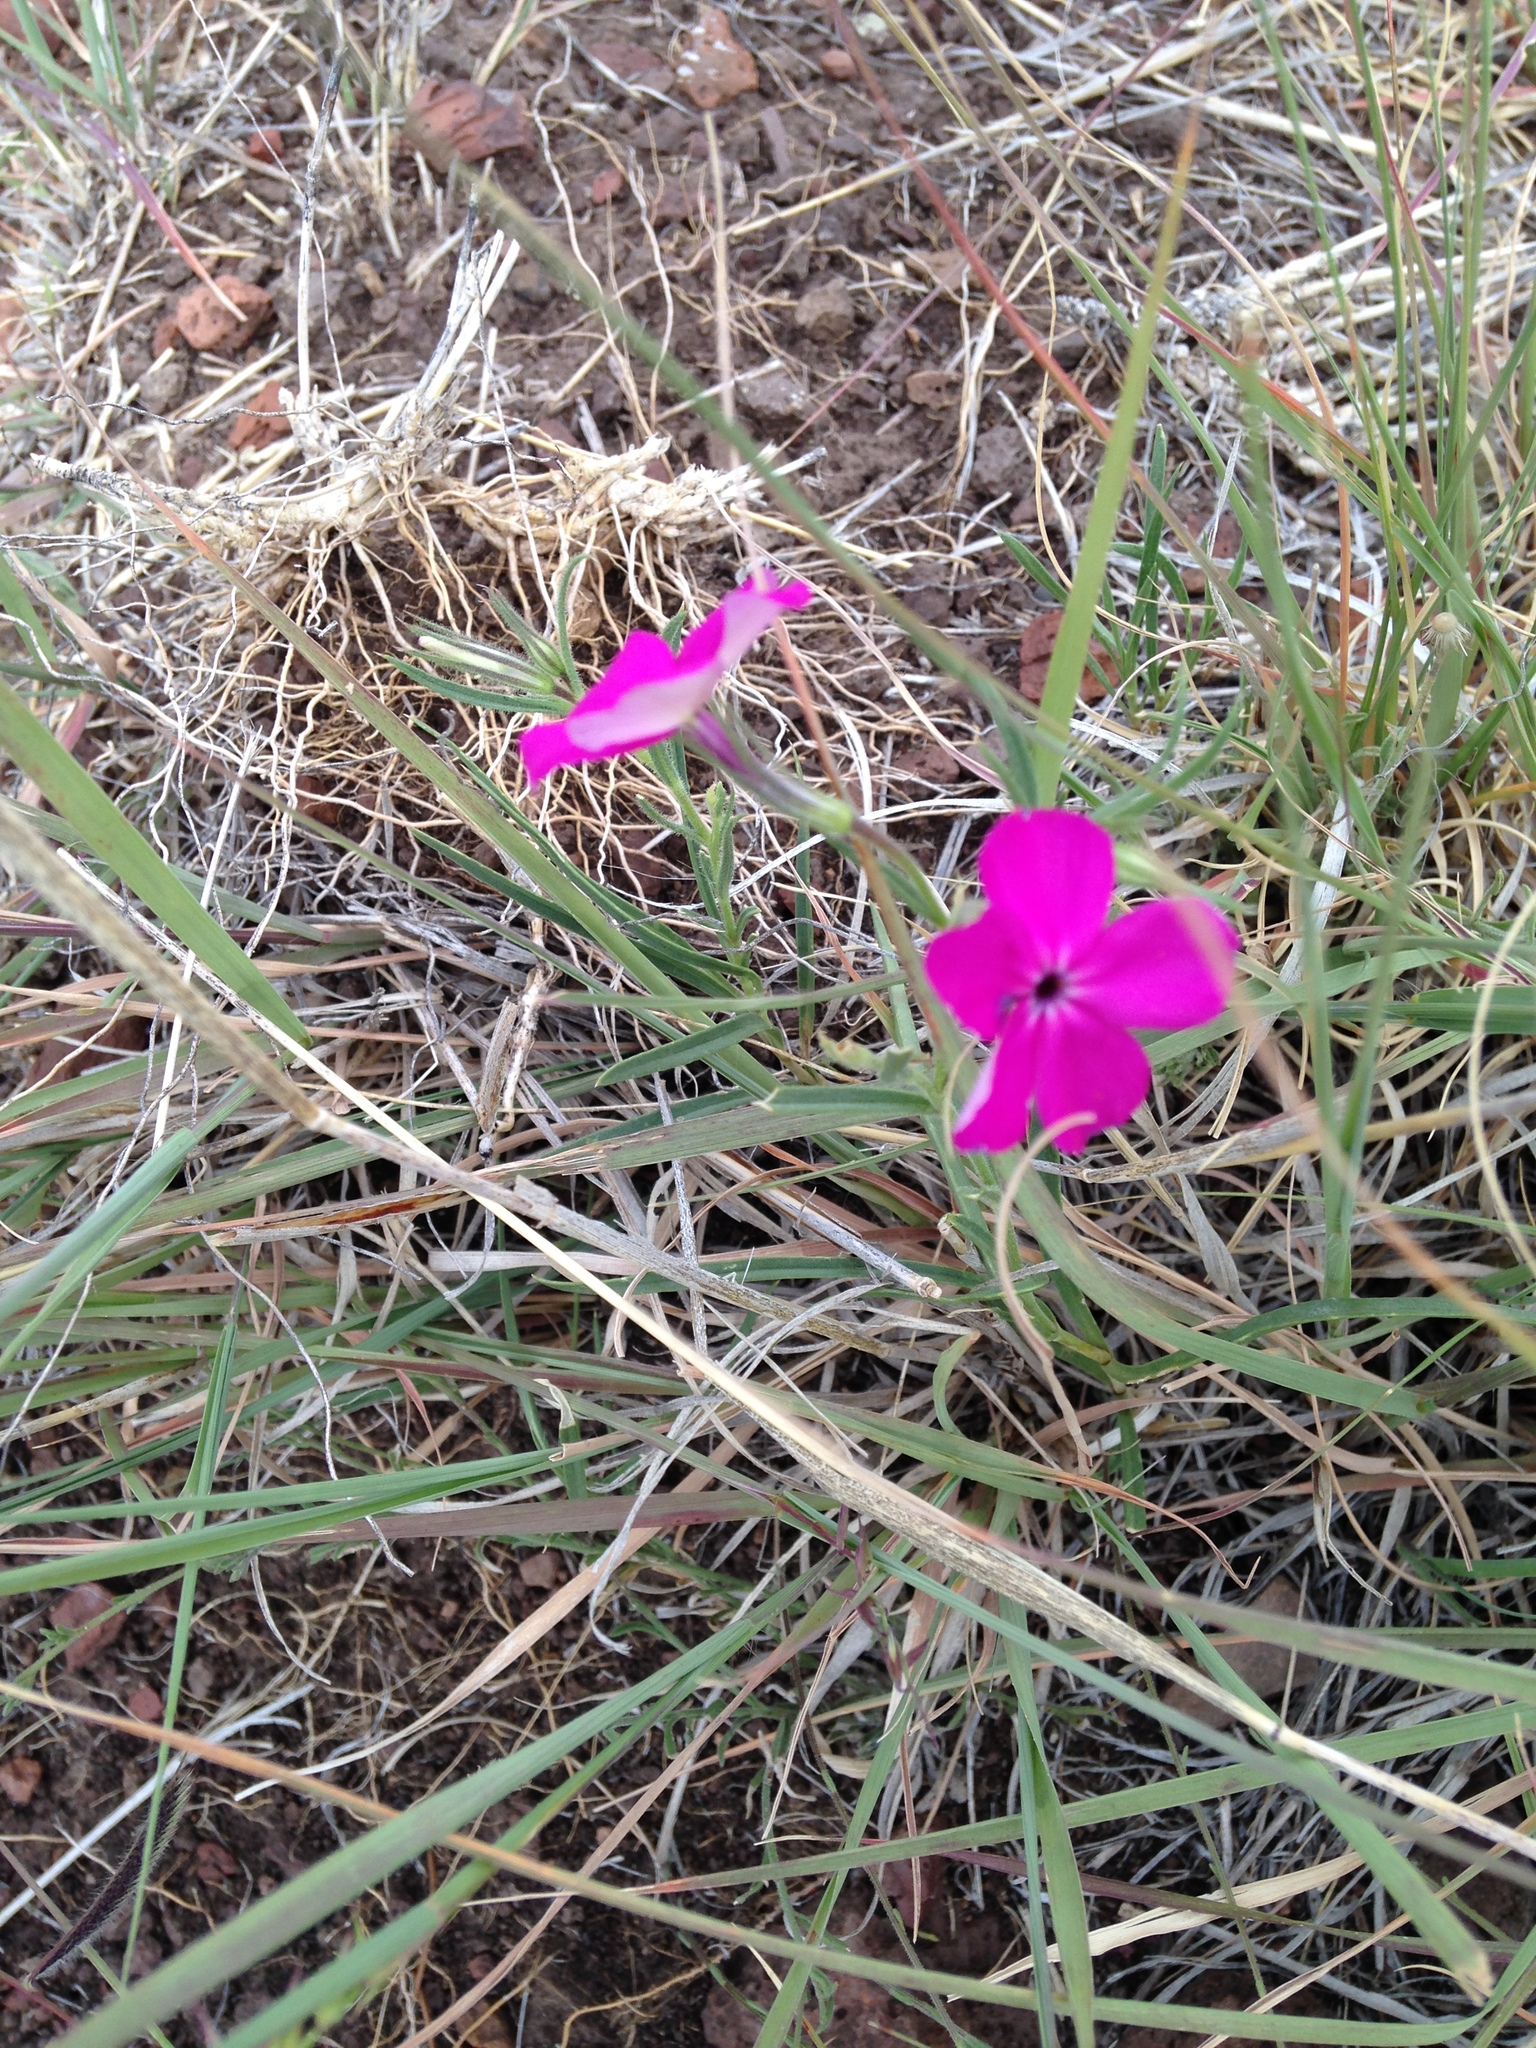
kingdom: Plantae
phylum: Tracheophyta
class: Magnoliopsida
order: Ericales
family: Polemoniaceae
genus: Phlox
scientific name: Phlox nana
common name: Santa fe phlox
